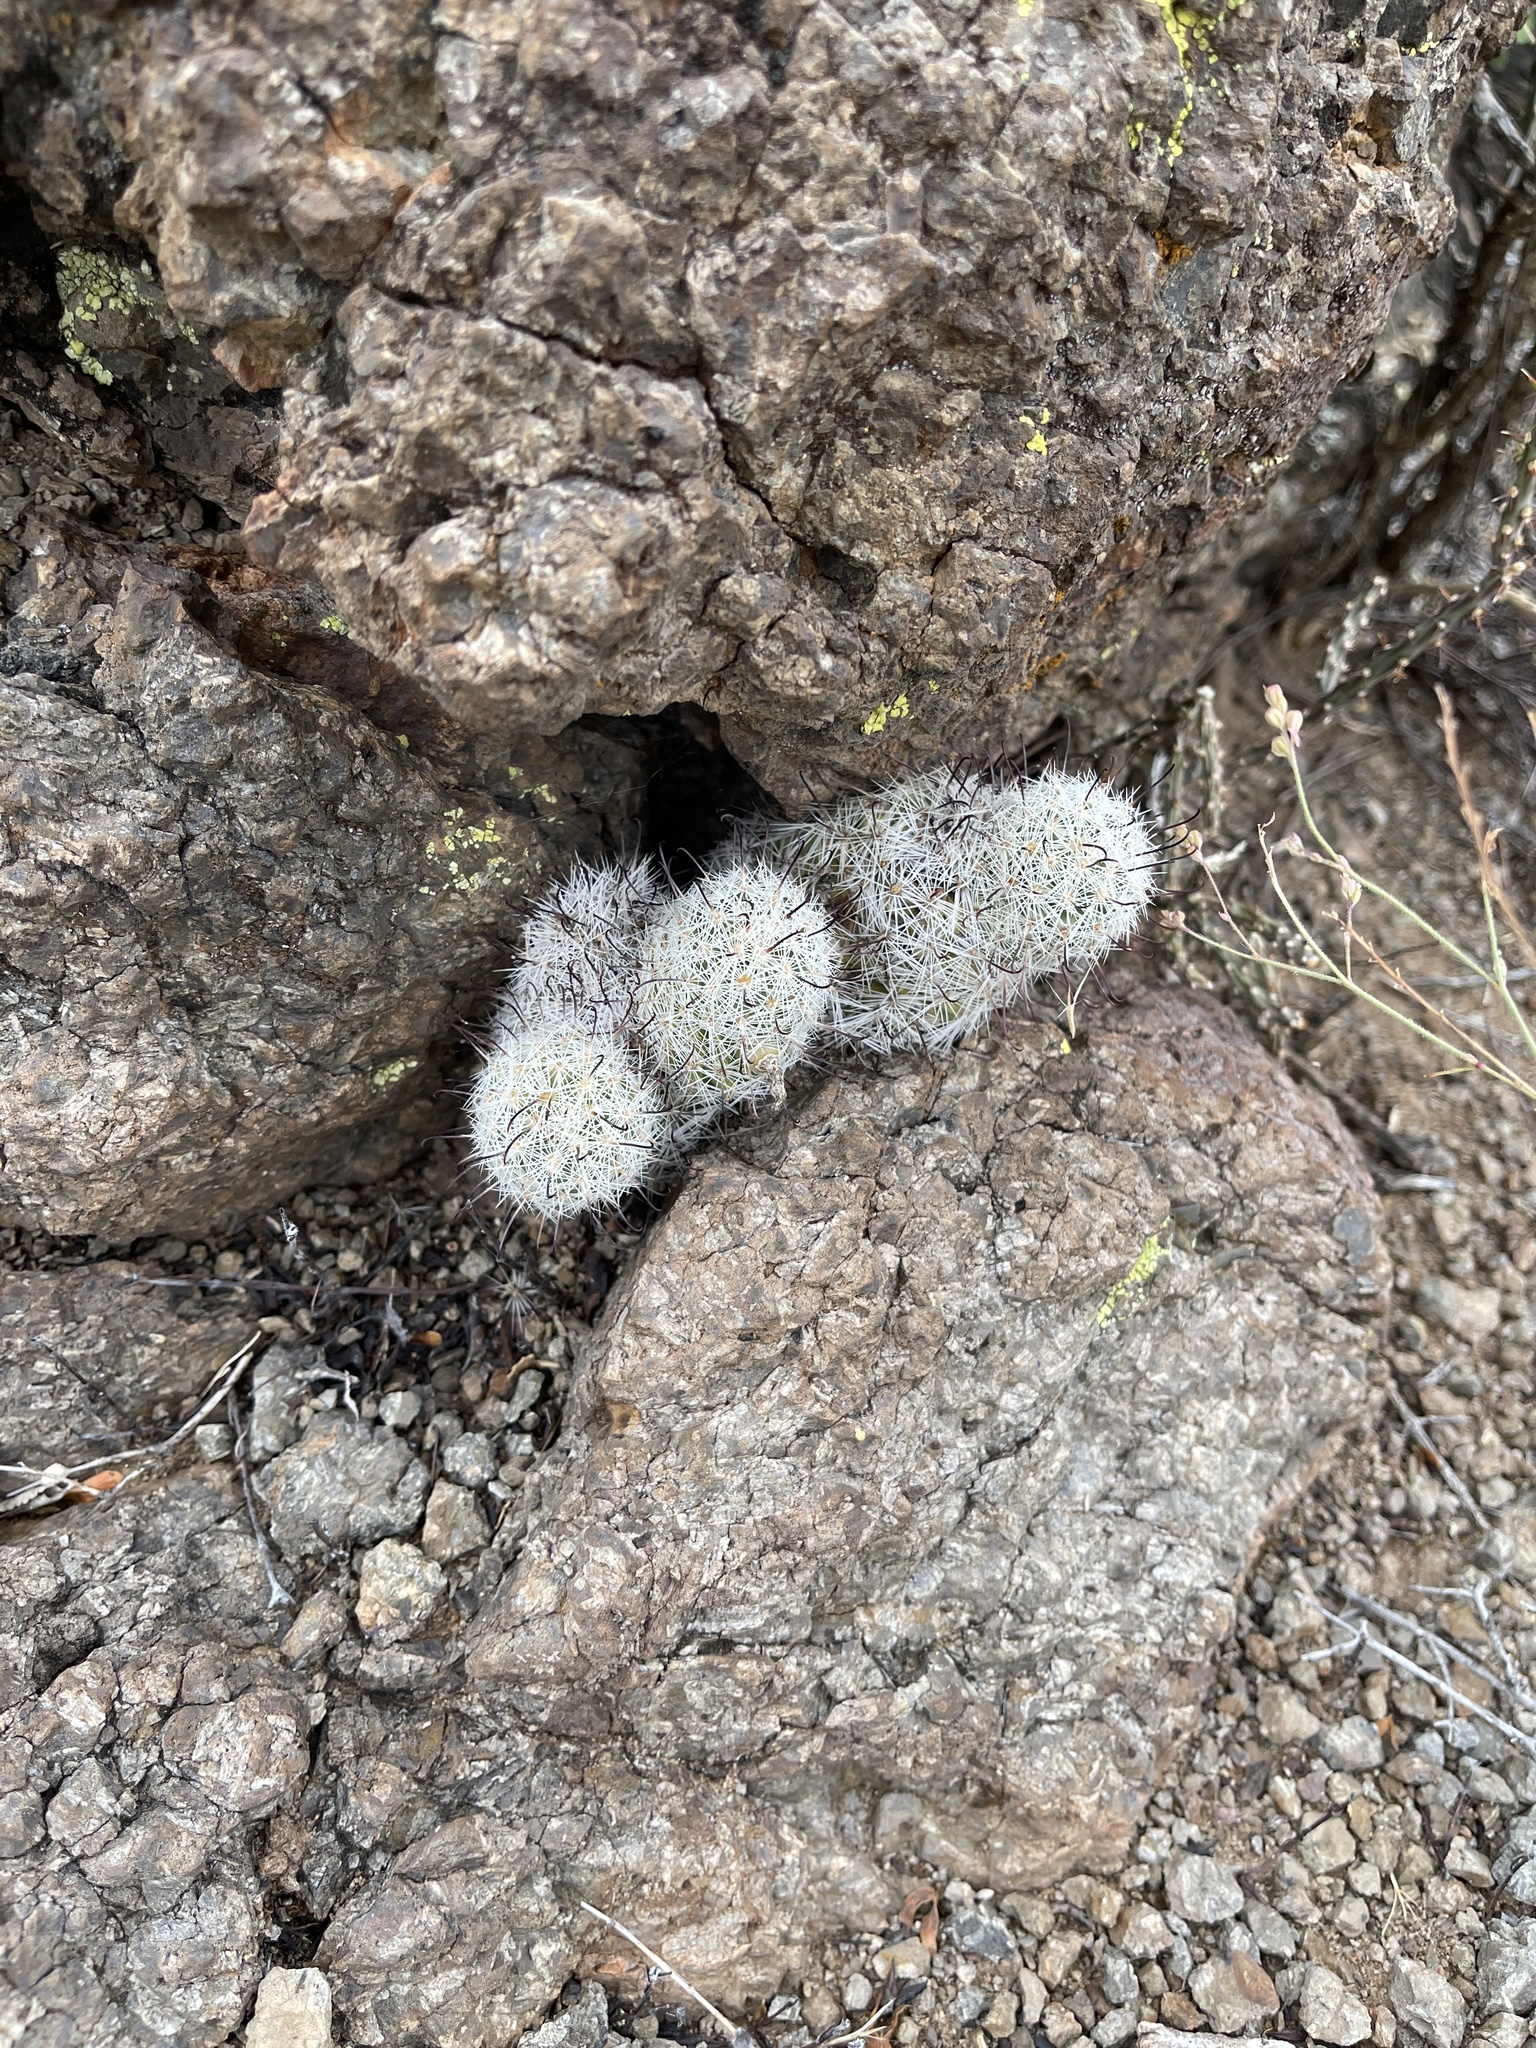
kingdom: Plantae
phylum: Tracheophyta
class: Magnoliopsida
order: Caryophyllales
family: Cactaceae
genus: Cochemiea
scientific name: Cochemiea grahamii
